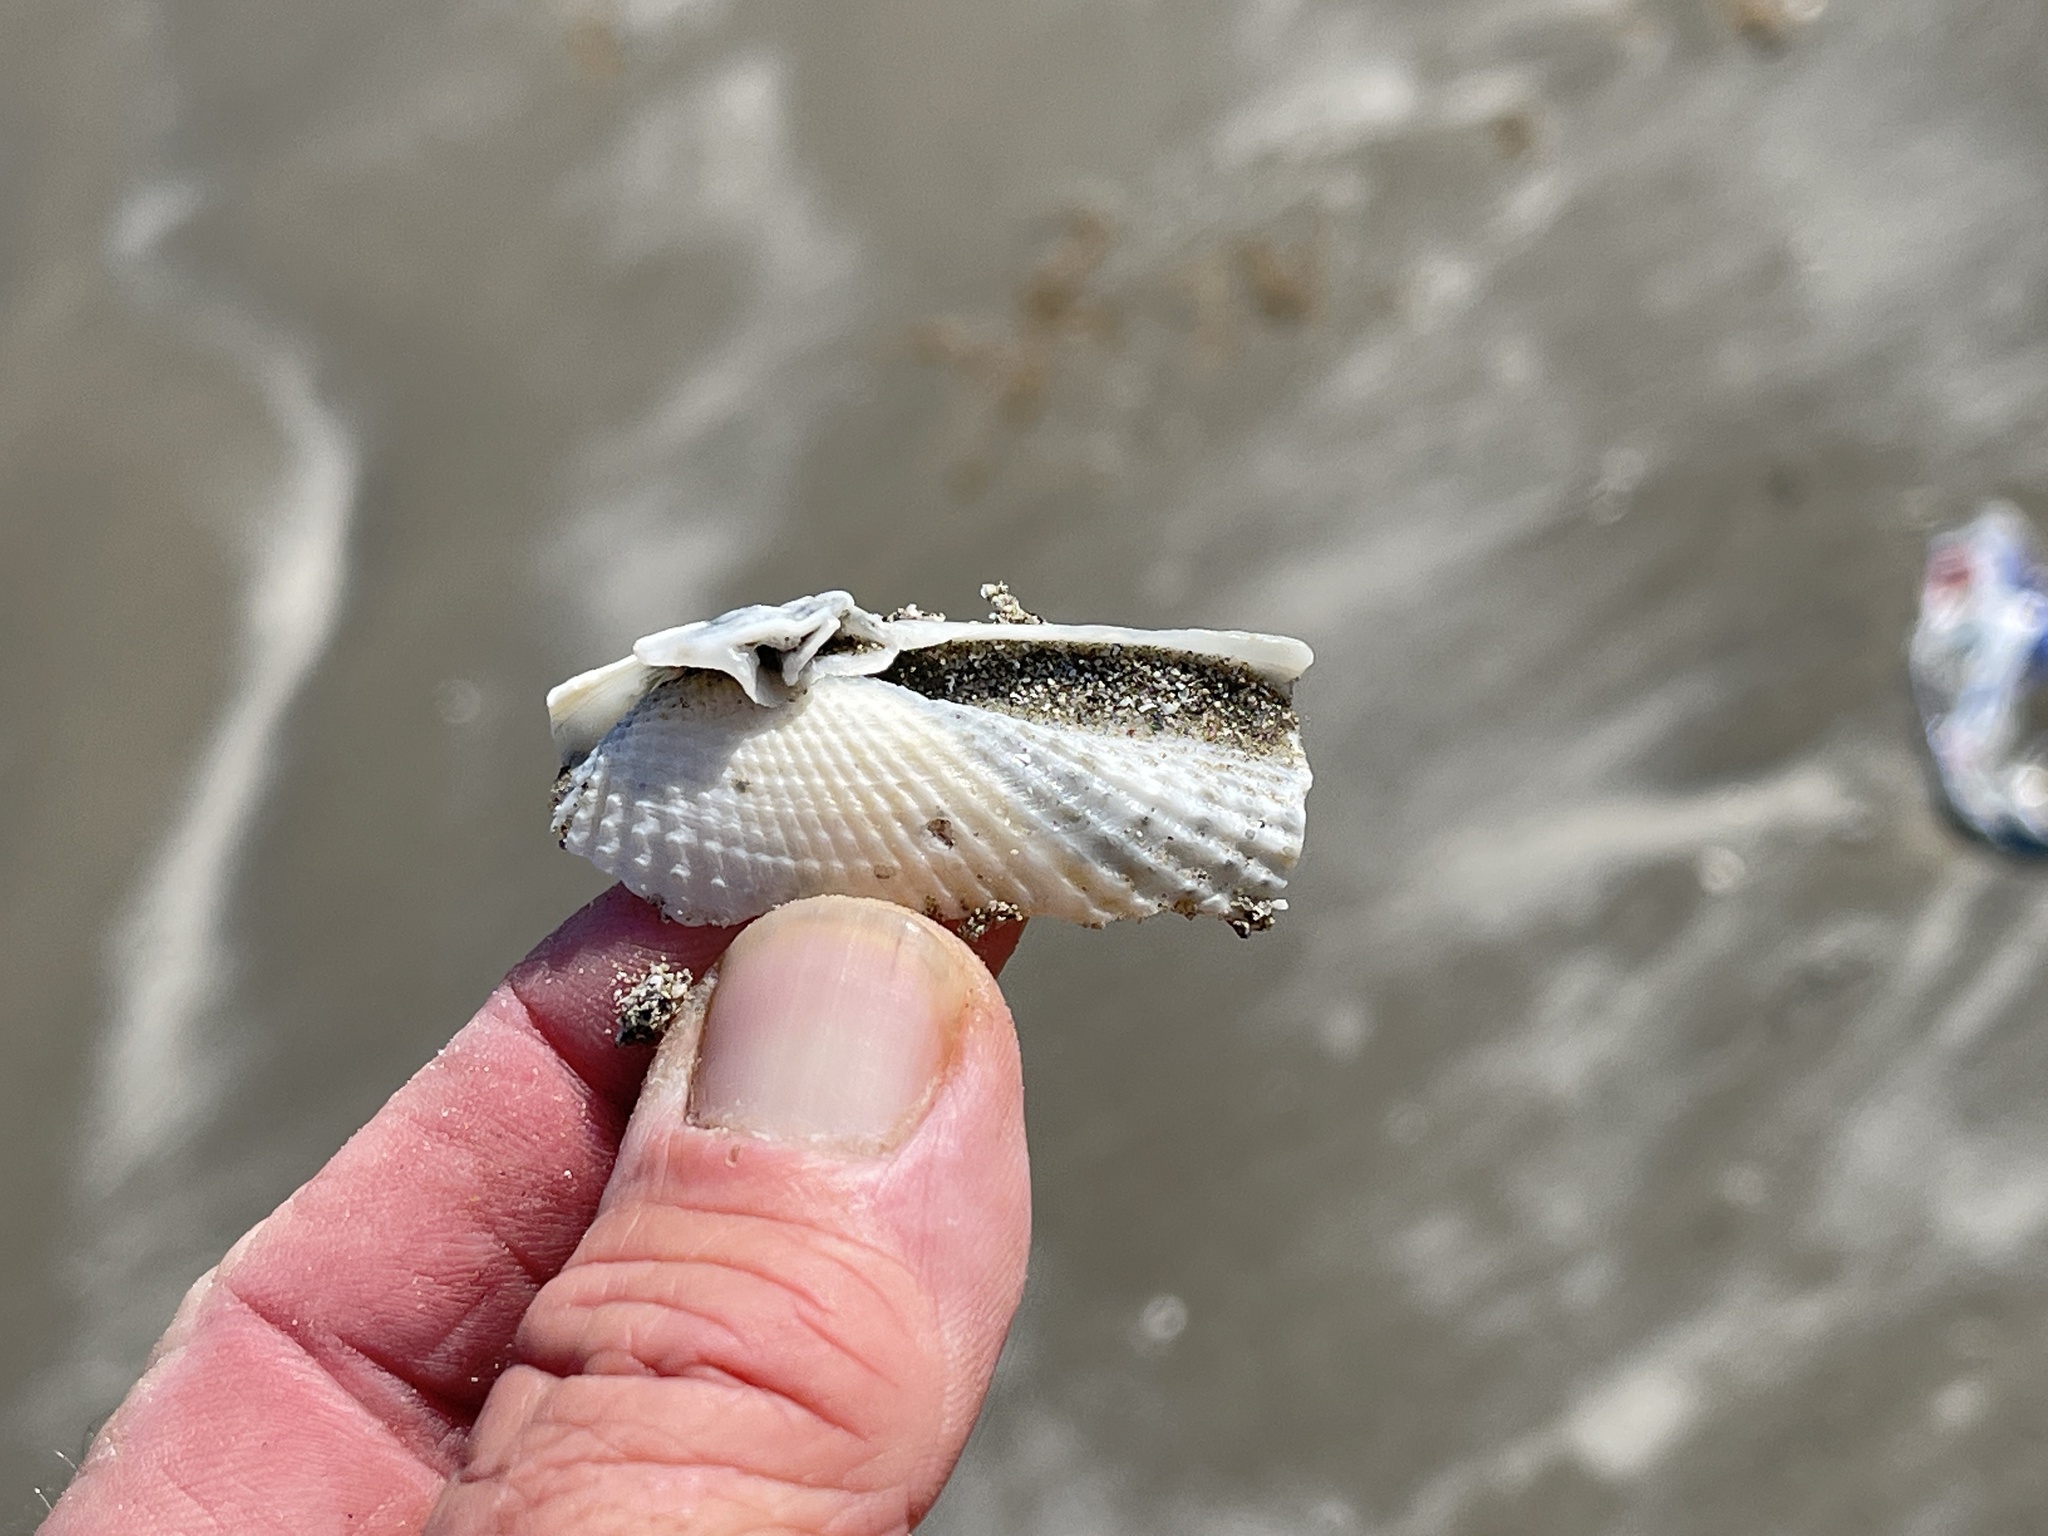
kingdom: Animalia
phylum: Mollusca
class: Bivalvia
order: Myida
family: Pholadidae
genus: Cyrtopleura
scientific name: Cyrtopleura costata
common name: Angel wing
